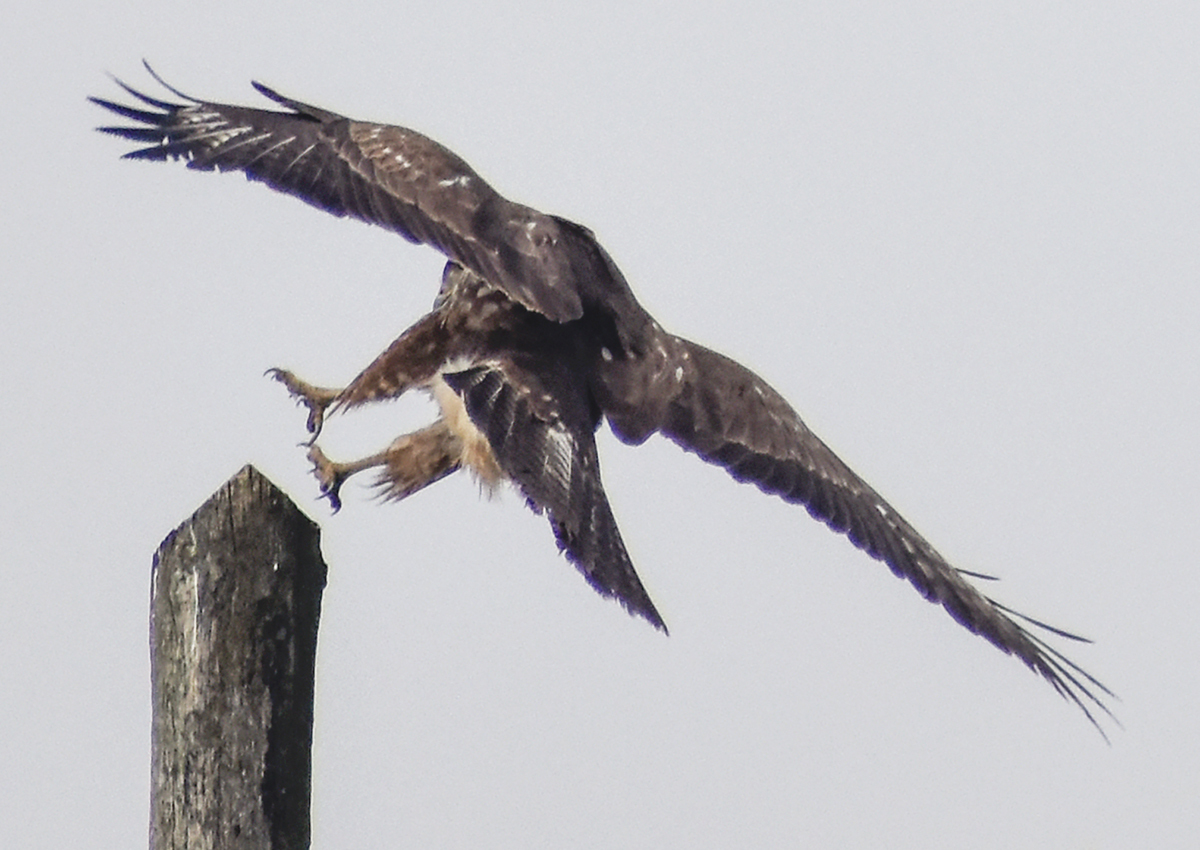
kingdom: Animalia
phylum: Chordata
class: Aves
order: Accipitriformes
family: Accipitridae
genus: Buteo
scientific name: Buteo buteo
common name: Common buzzard
